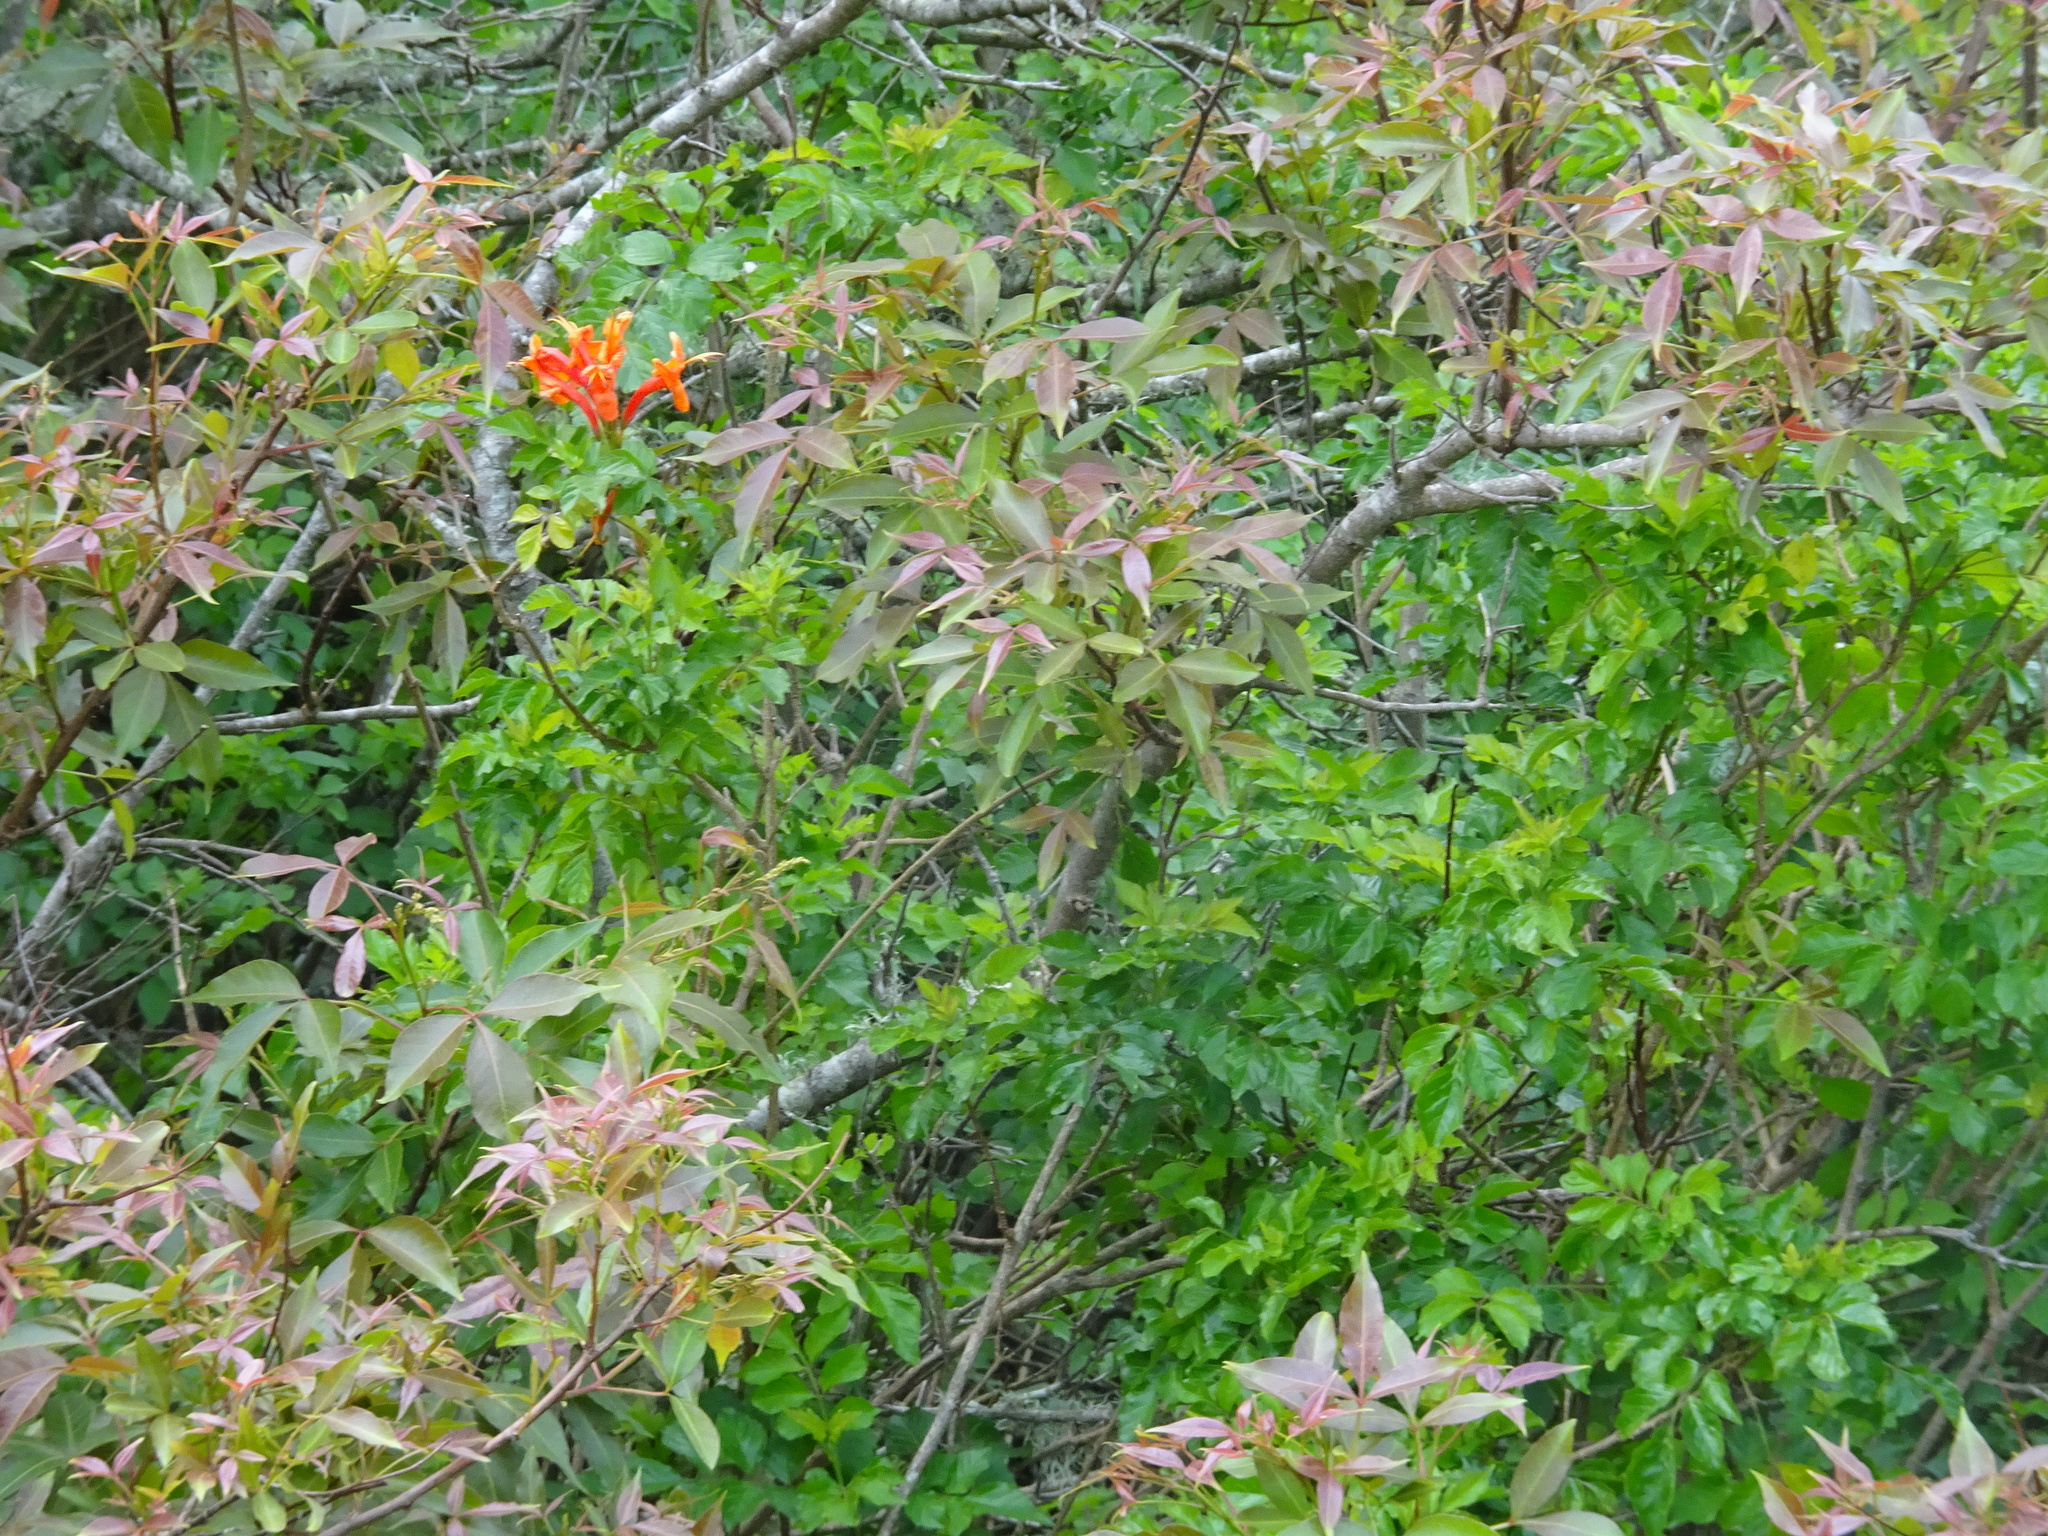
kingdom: Plantae
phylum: Tracheophyta
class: Magnoliopsida
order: Lamiales
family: Bignoniaceae
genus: Tecomaria
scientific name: Tecomaria capensis
